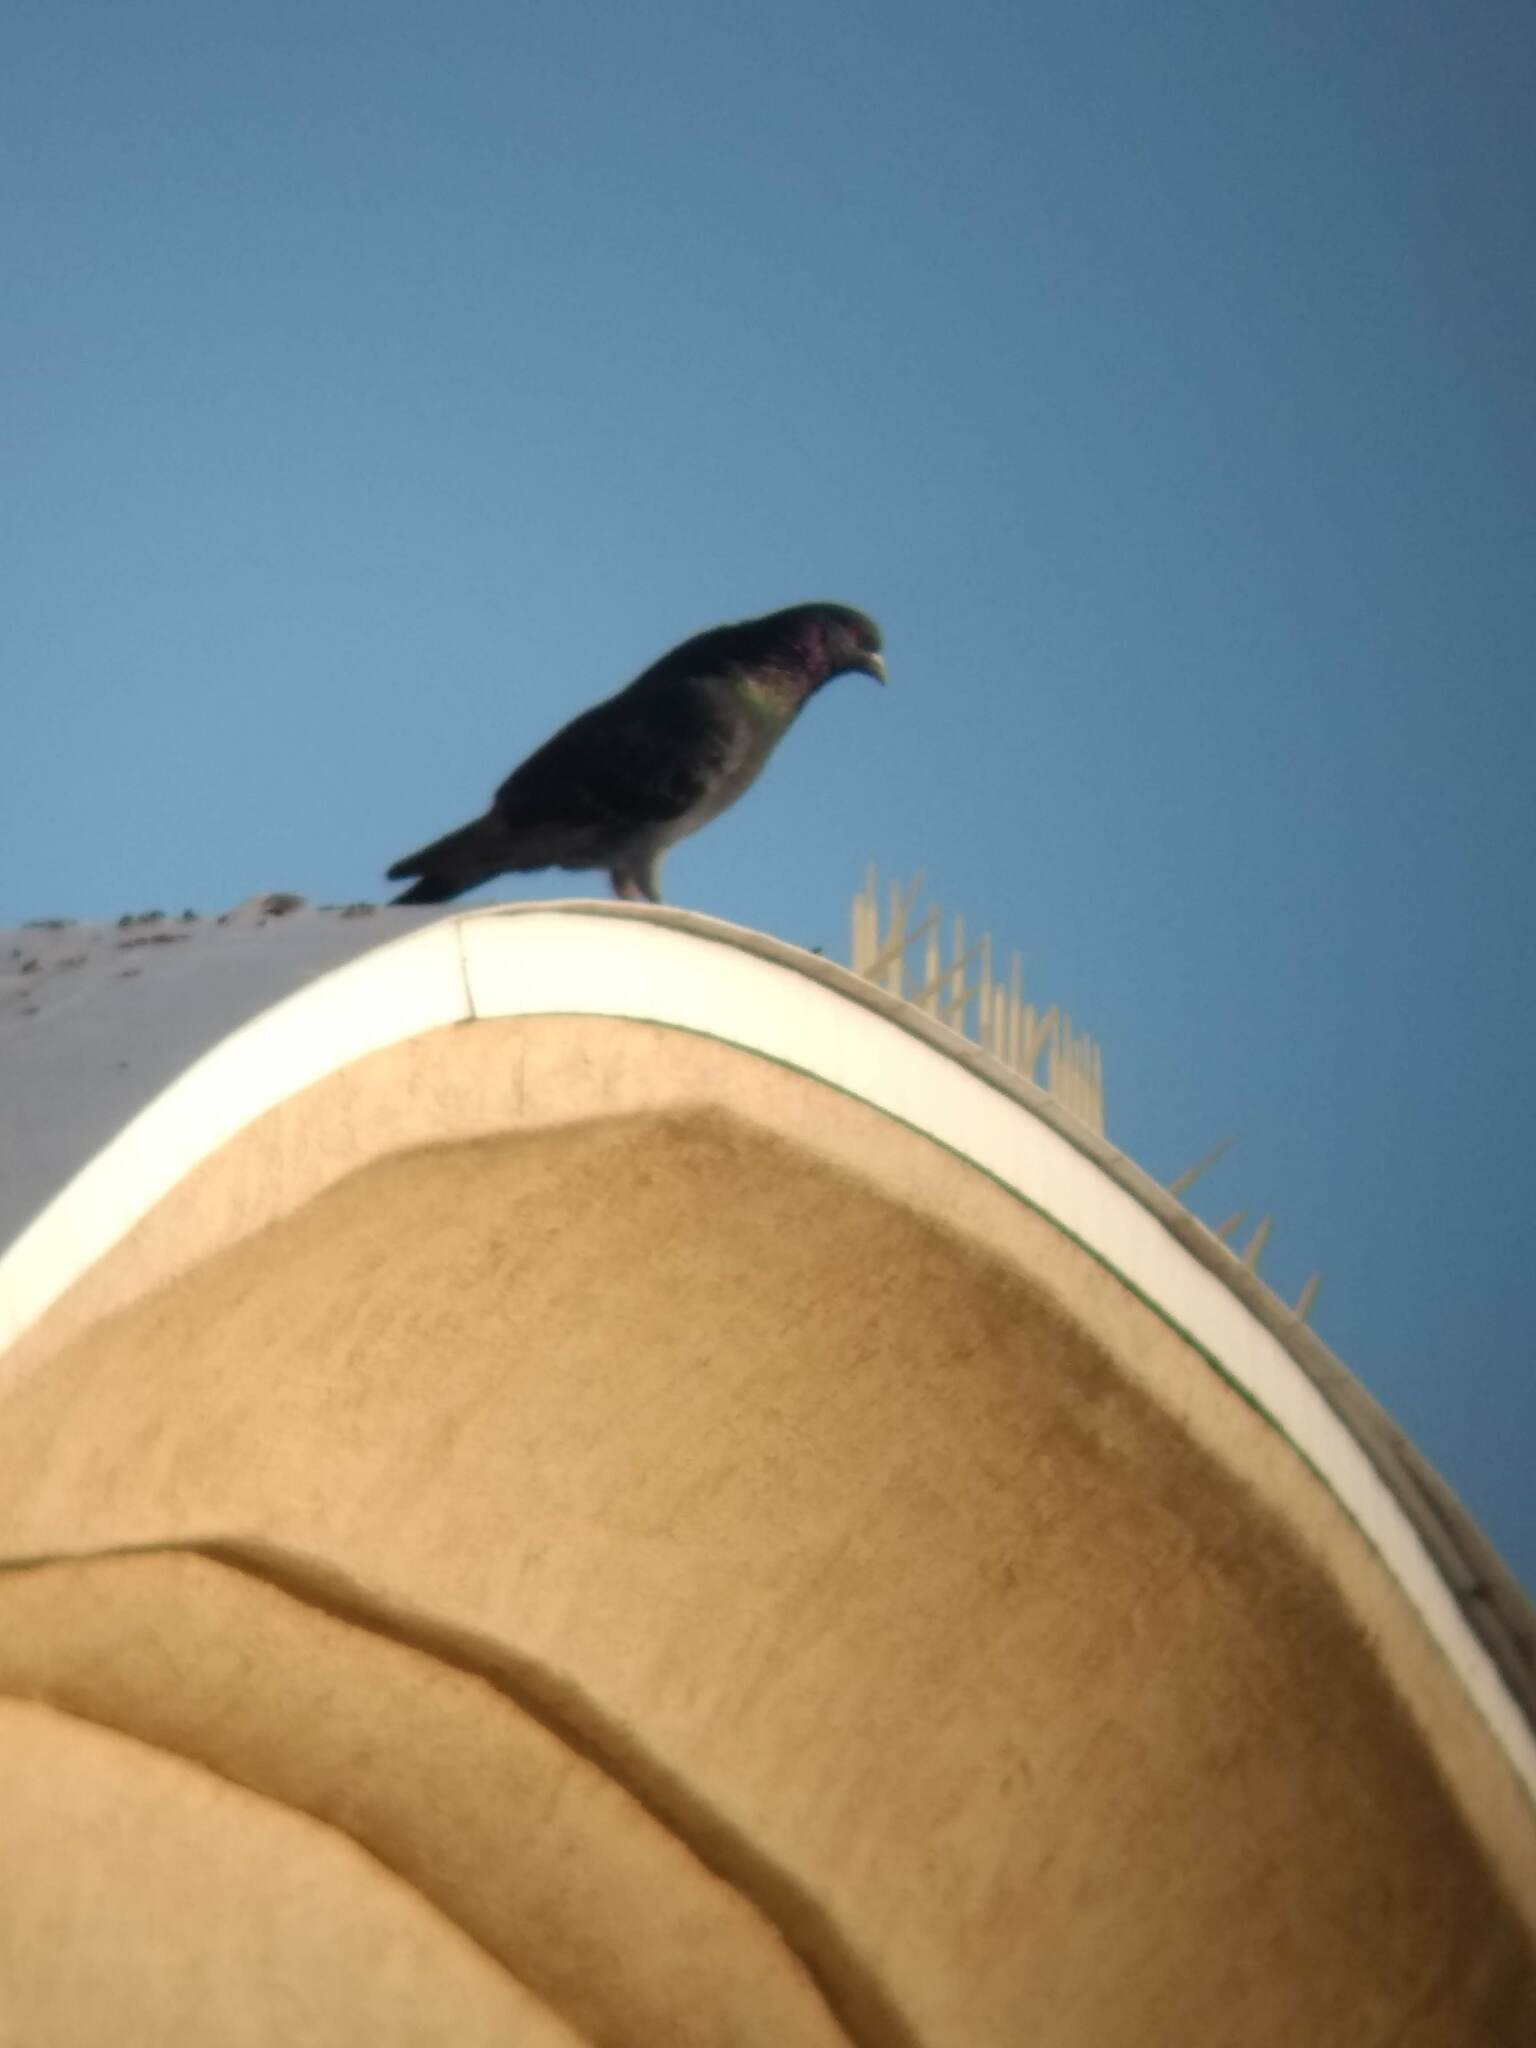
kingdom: Animalia
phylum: Chordata
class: Aves
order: Columbiformes
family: Columbidae
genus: Columba
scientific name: Columba livia
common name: Rock pigeon
